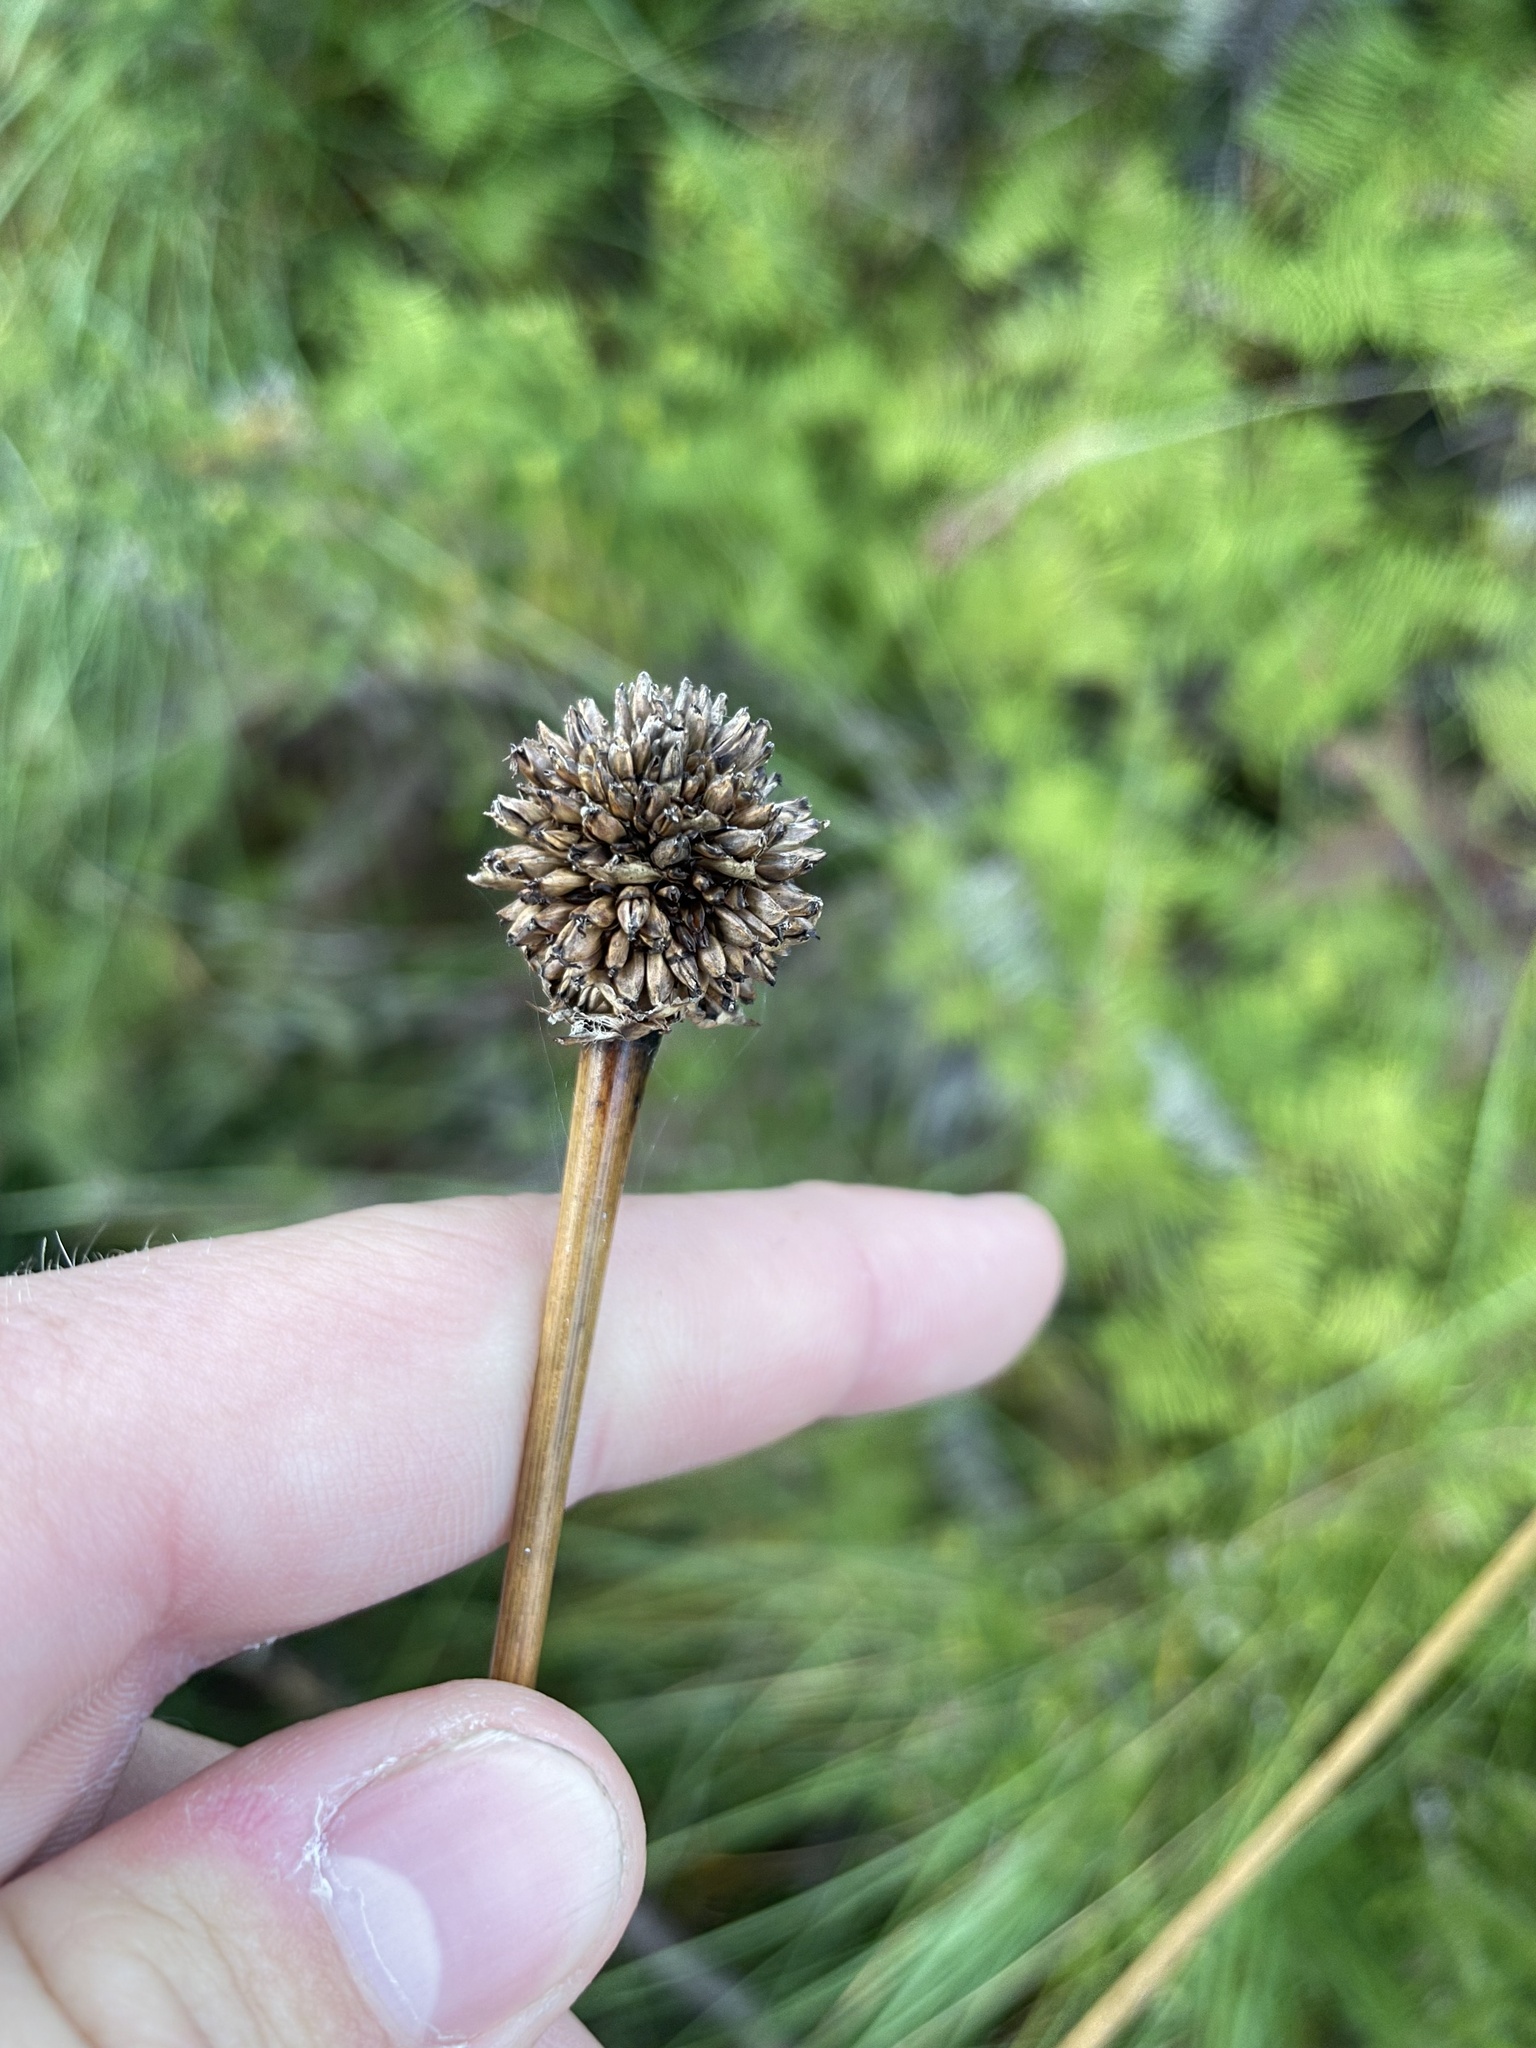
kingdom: Plantae
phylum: Tracheophyta
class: Liliopsida
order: Poales
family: Cyperaceae
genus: Gymnoschoenus
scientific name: Gymnoschoenus sphaerocephalus
